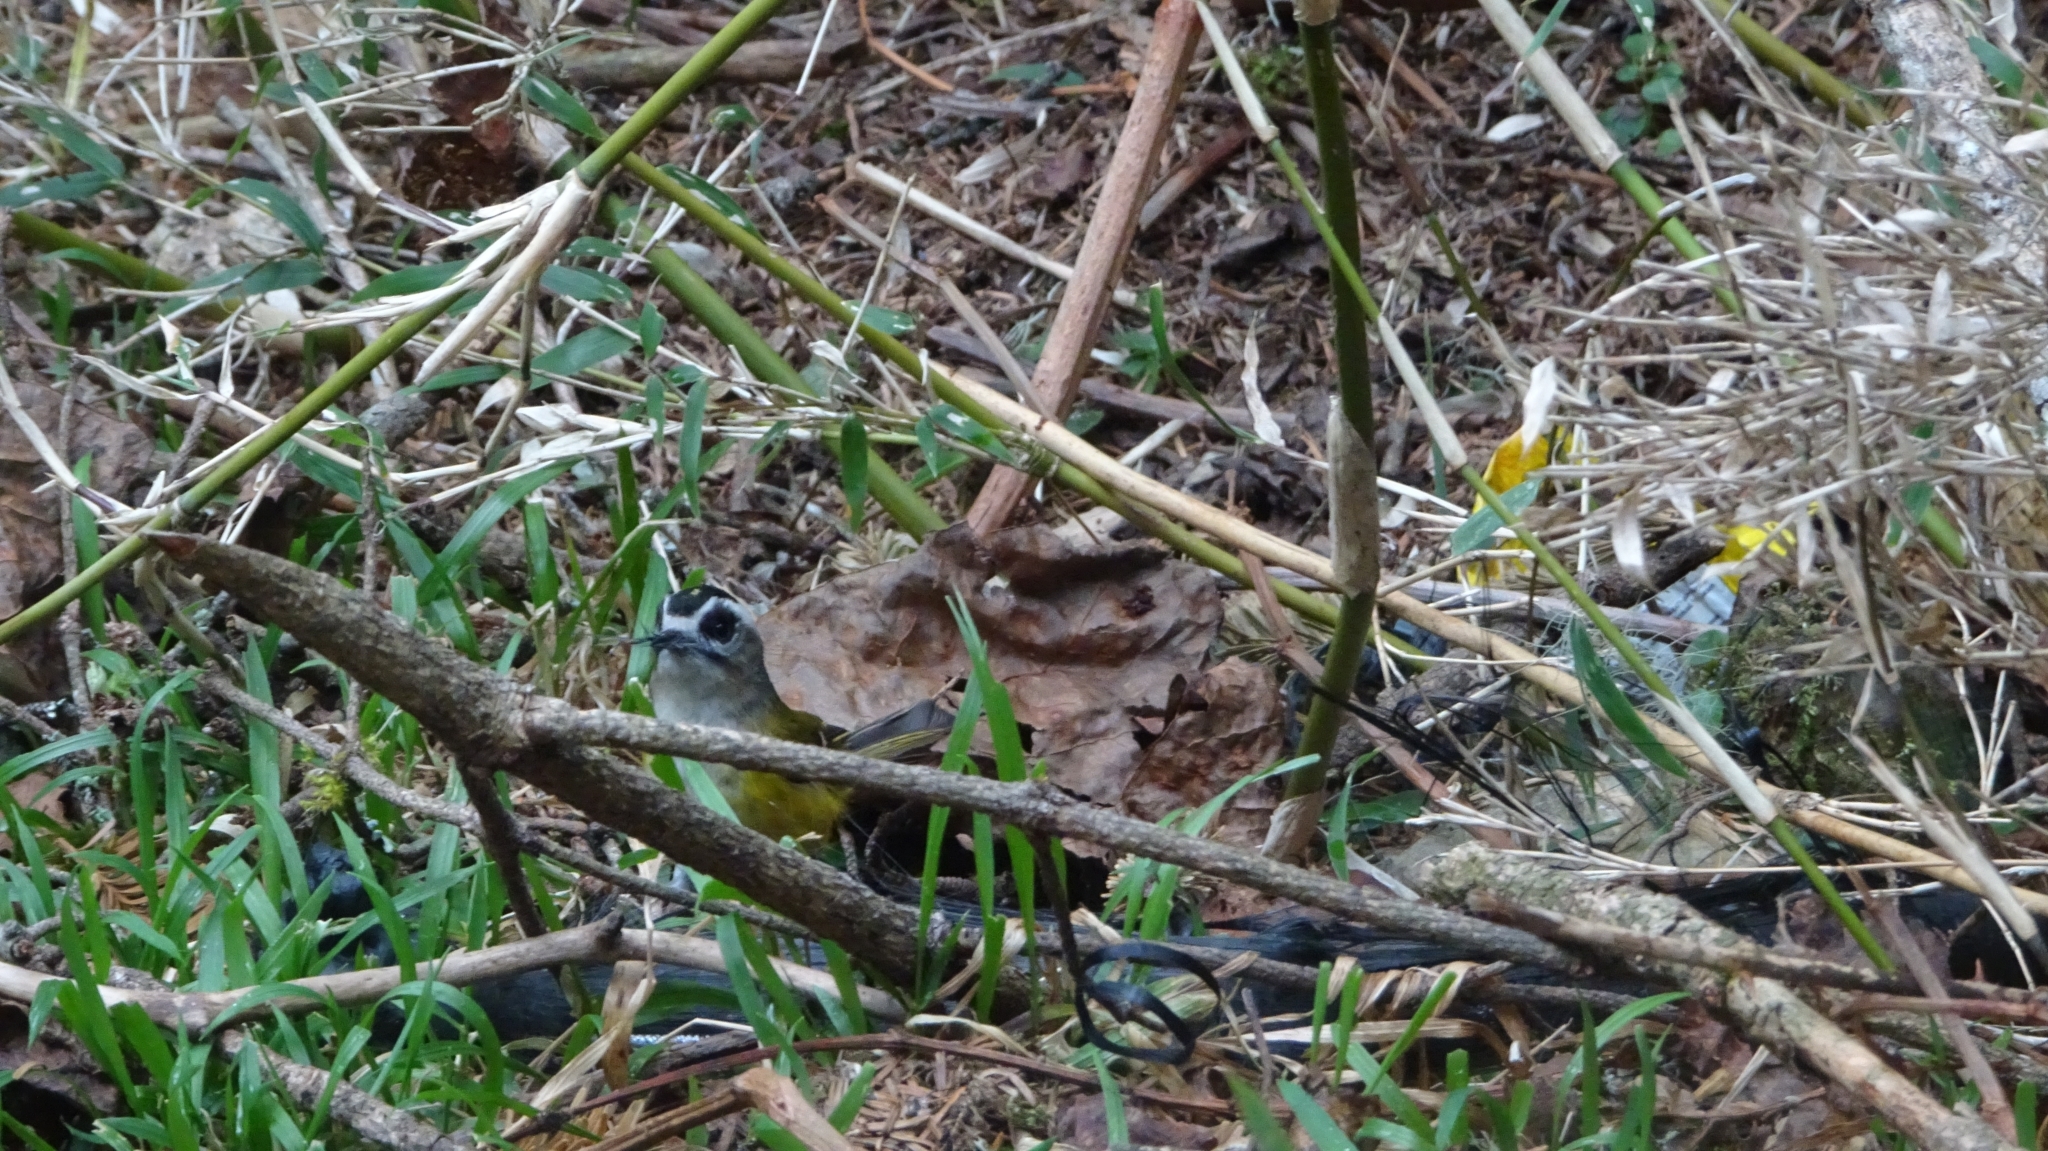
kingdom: Animalia
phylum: Chordata
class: Aves
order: Passeriformes
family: Regulidae
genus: Regulus
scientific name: Regulus goodfellowi
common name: Flamecrest
